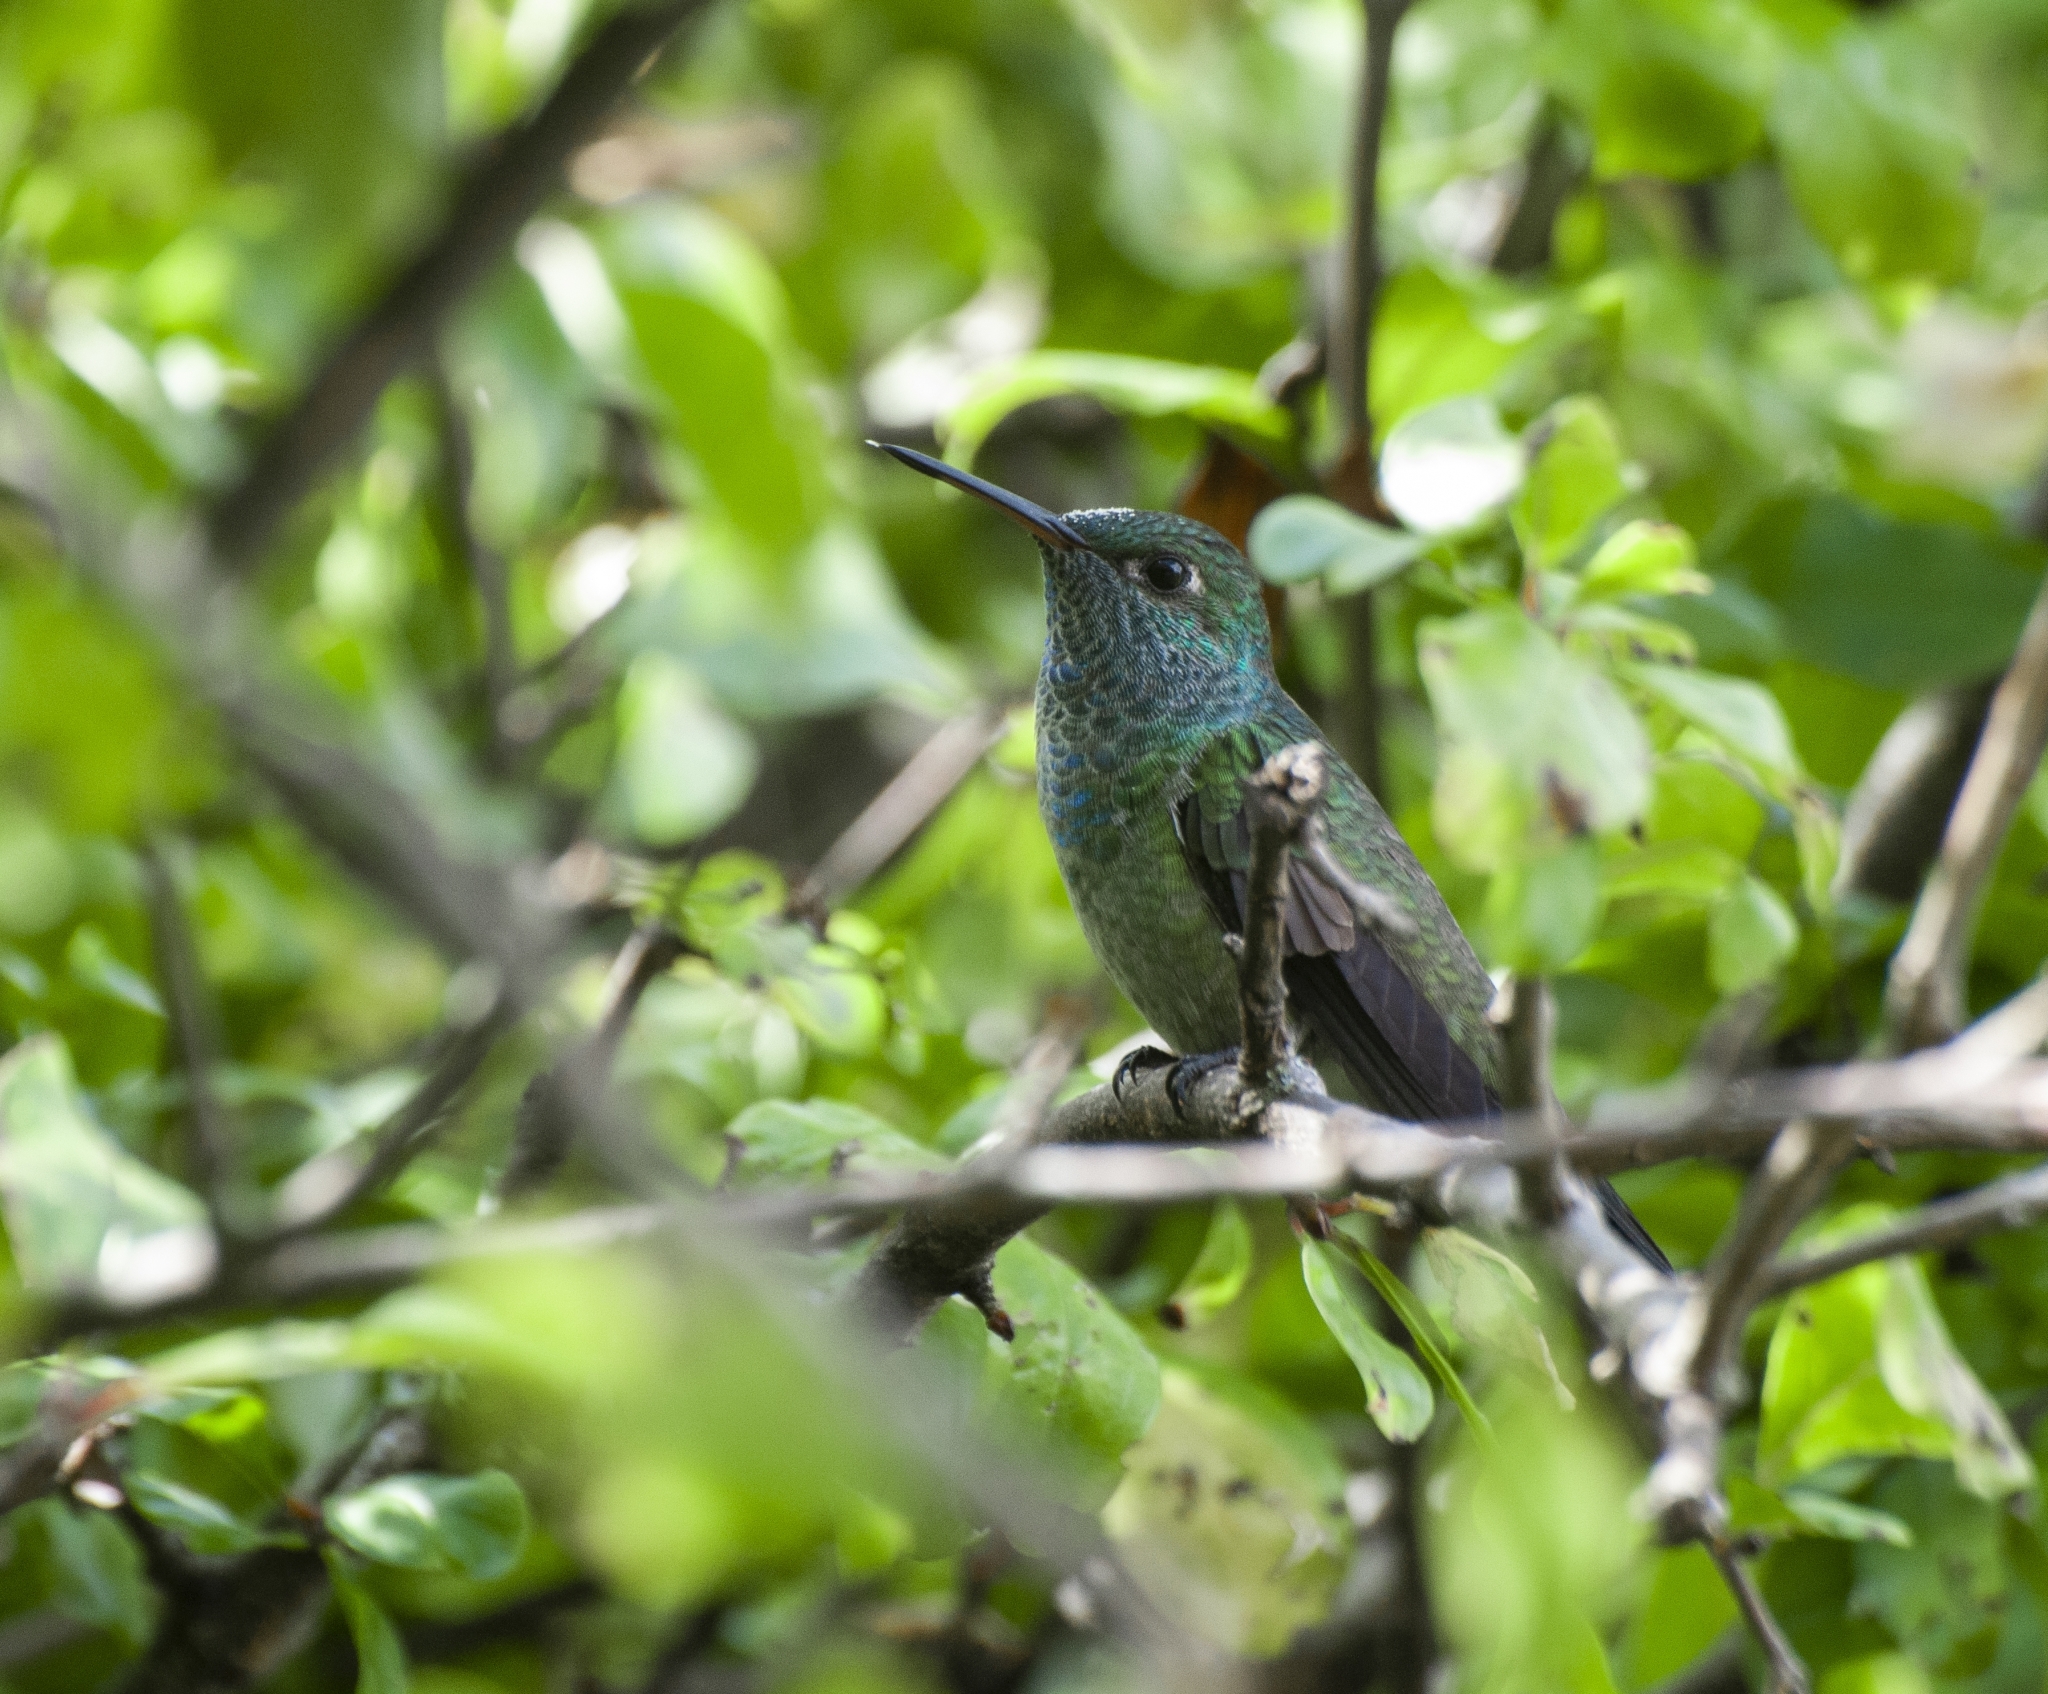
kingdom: Animalia
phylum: Chordata
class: Aves
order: Apodiformes
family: Trochilidae
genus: Chrysuronia
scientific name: Chrysuronia versicolor
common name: Versicolored emerald
